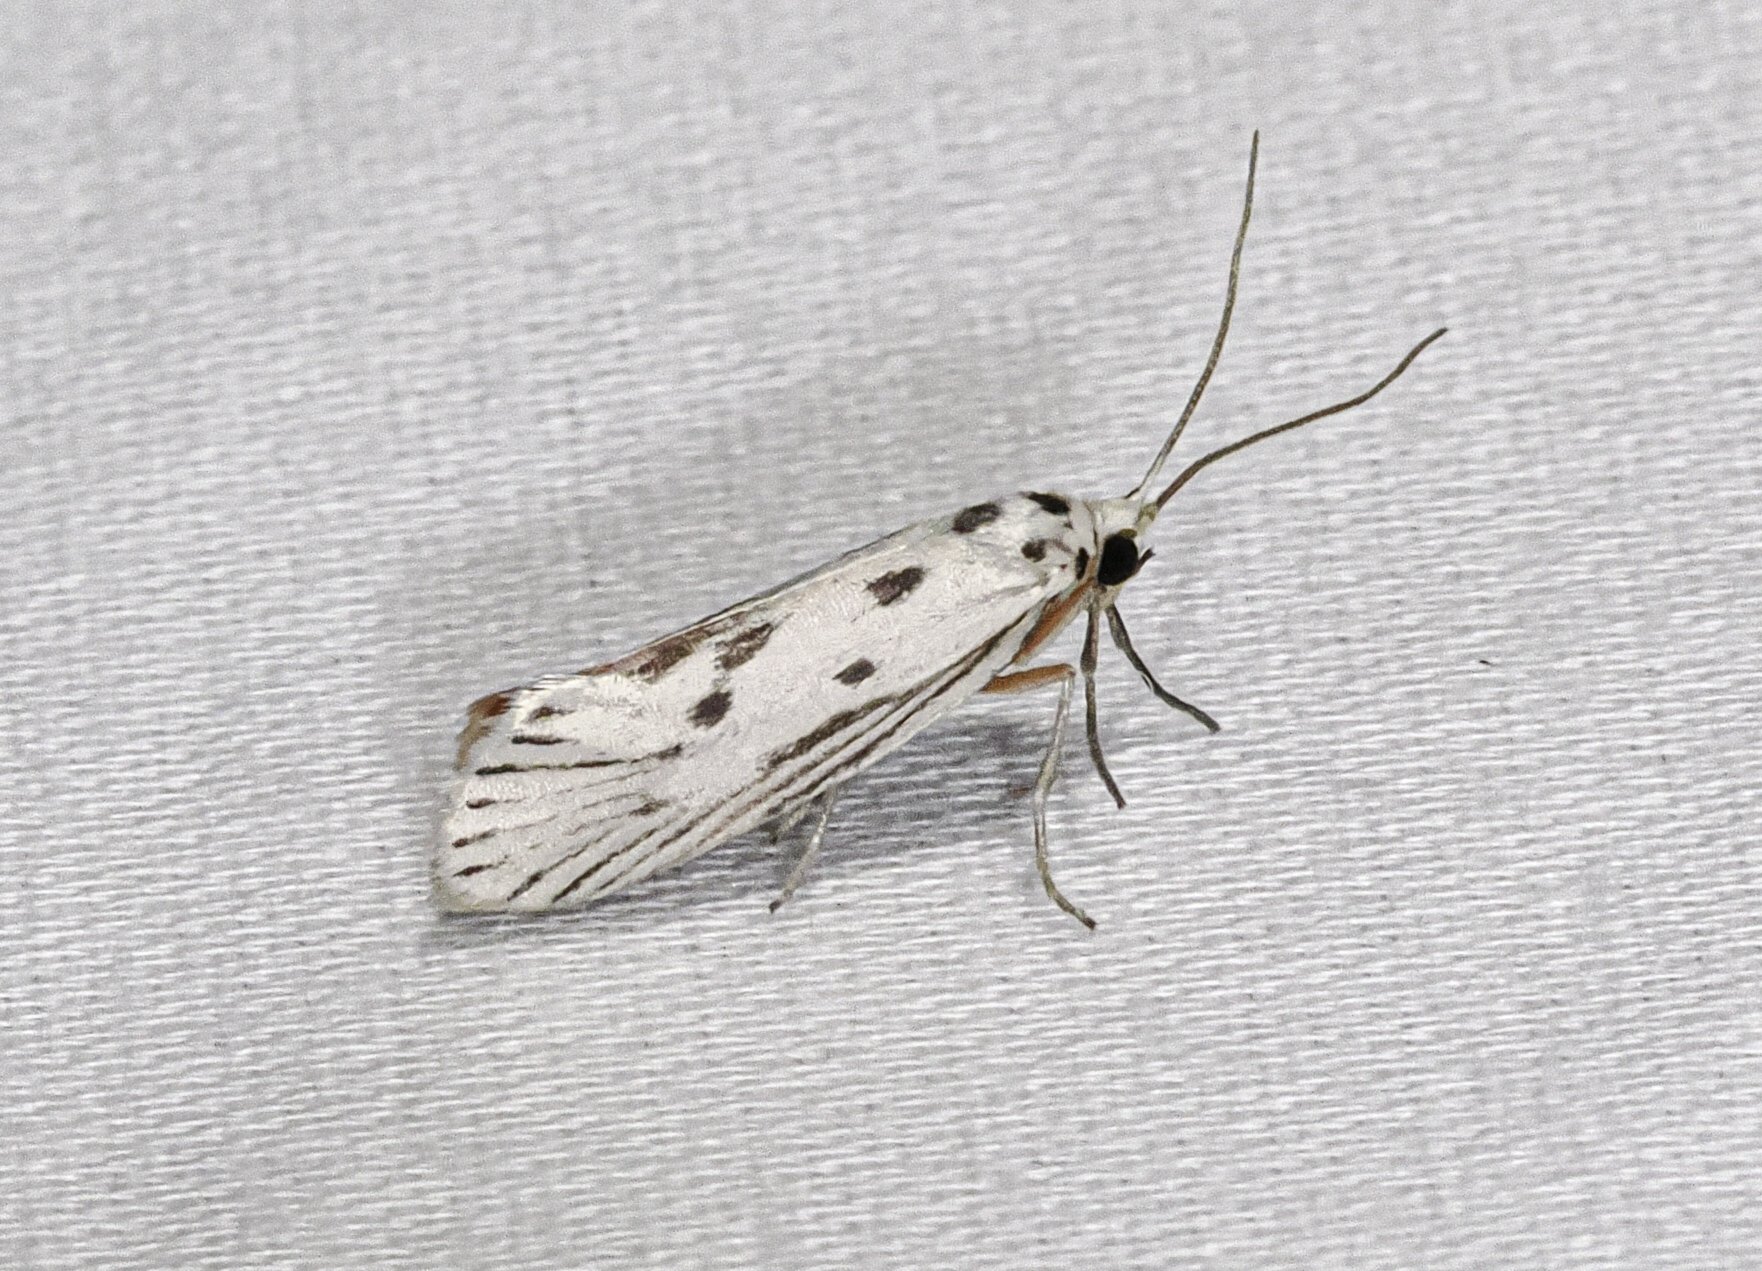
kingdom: Animalia
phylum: Arthropoda
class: Insecta
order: Lepidoptera
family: Lacturidae
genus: Lactura
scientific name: Lactura
